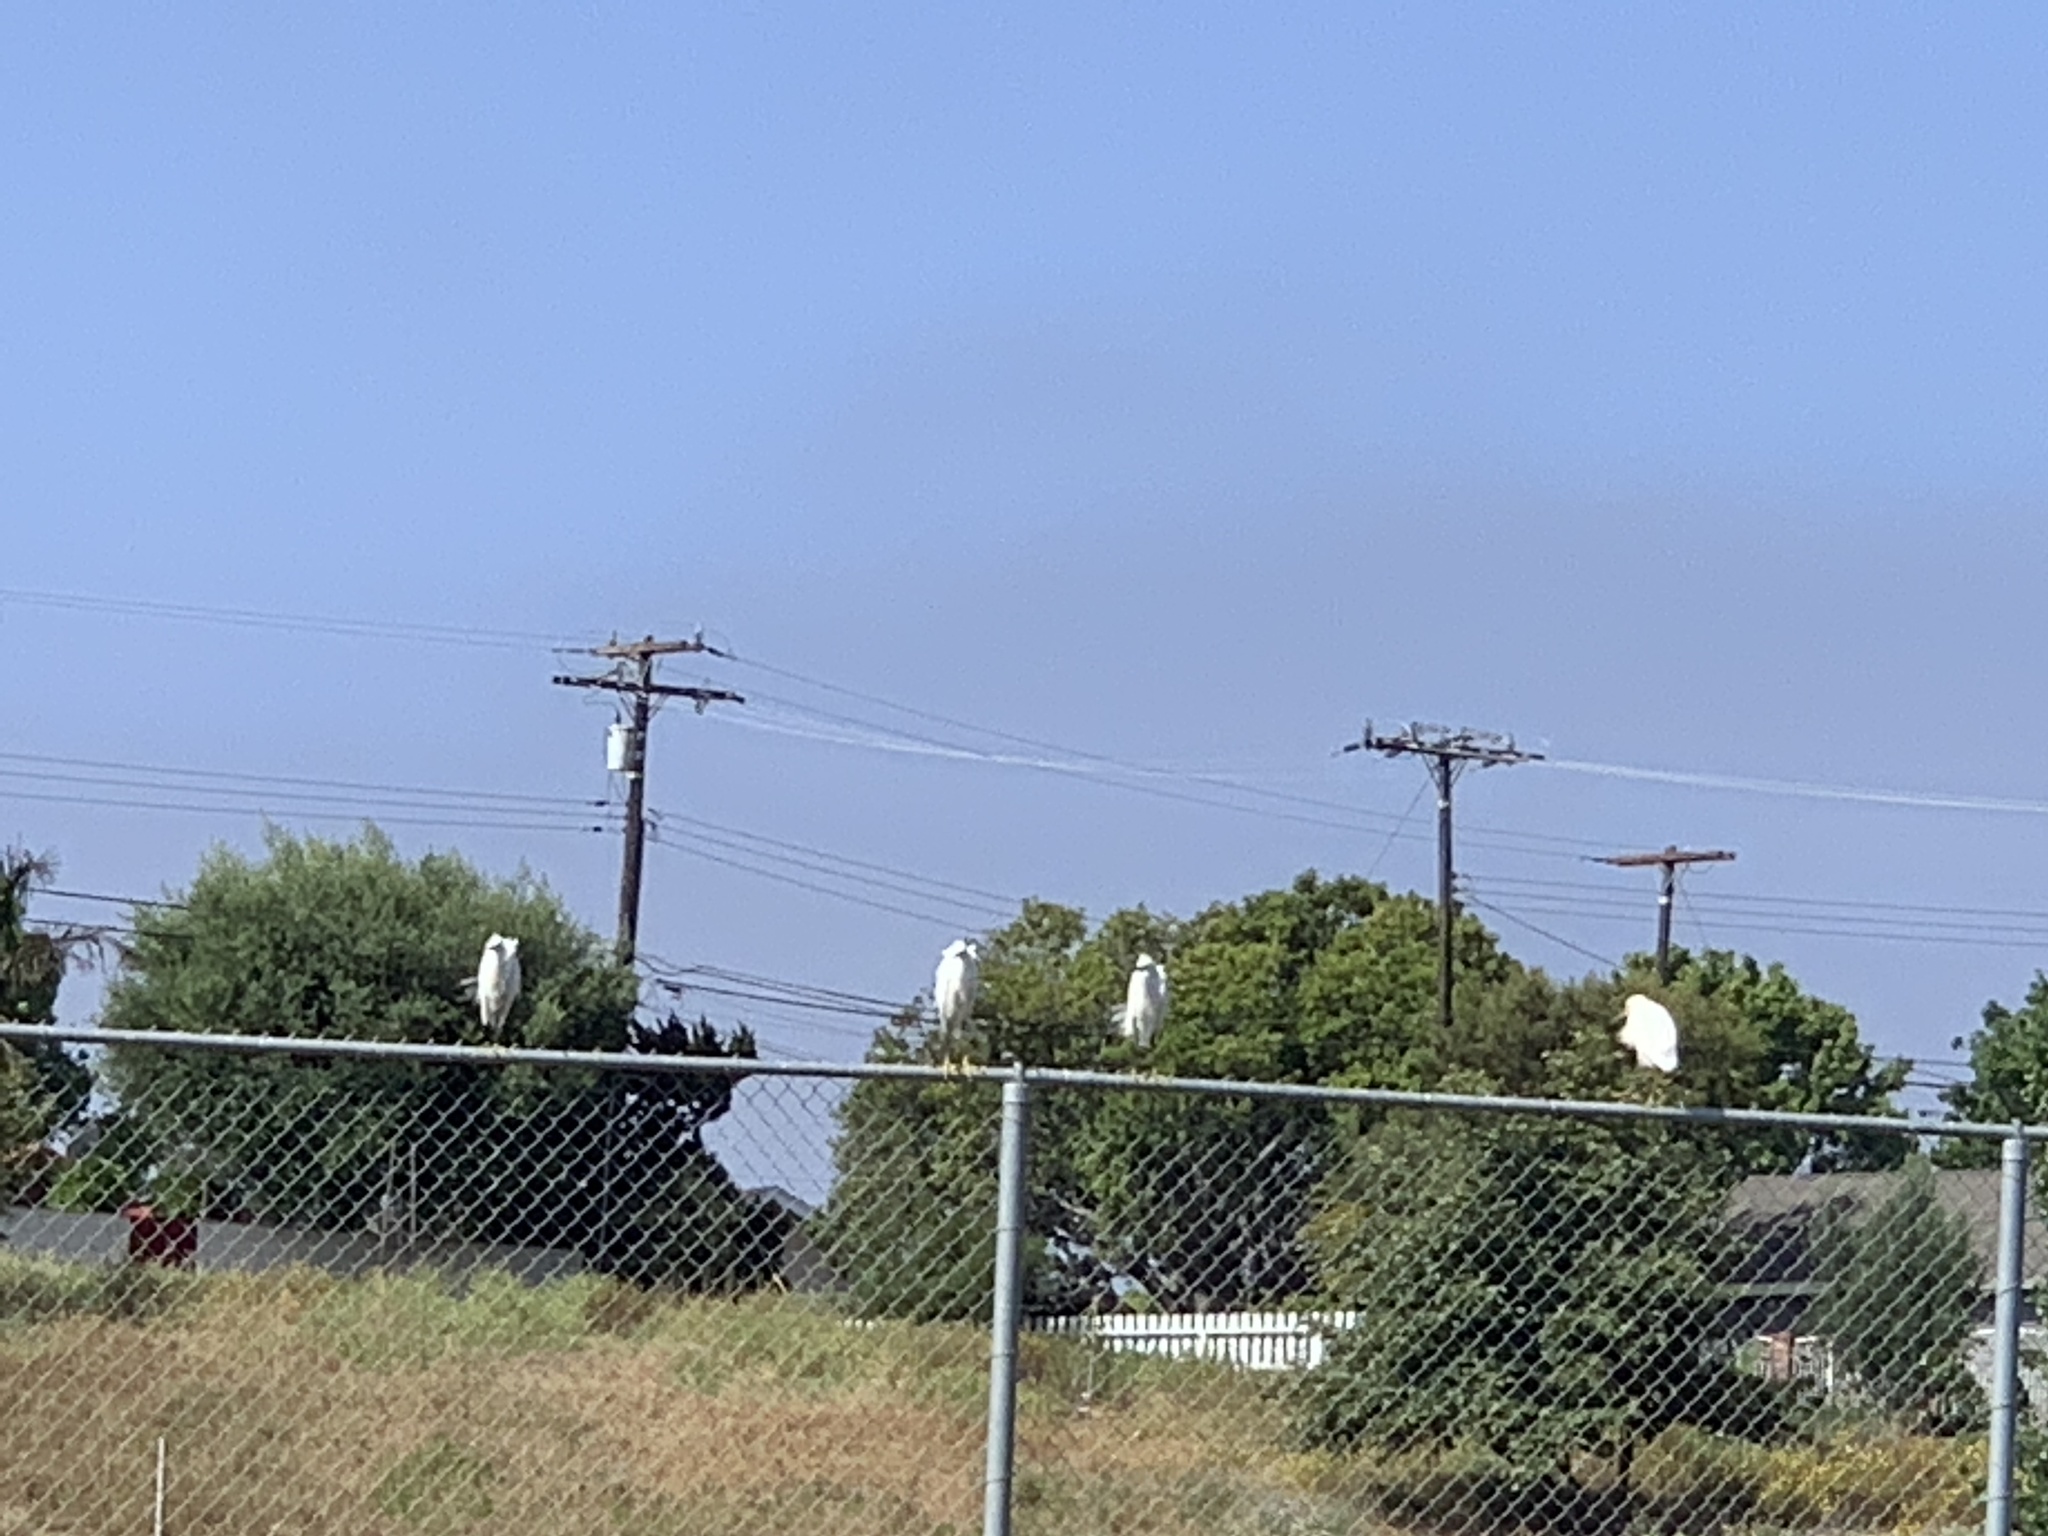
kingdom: Animalia
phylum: Chordata
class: Aves
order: Pelecaniformes
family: Ardeidae
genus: Egretta
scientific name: Egretta thula
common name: Snowy egret
